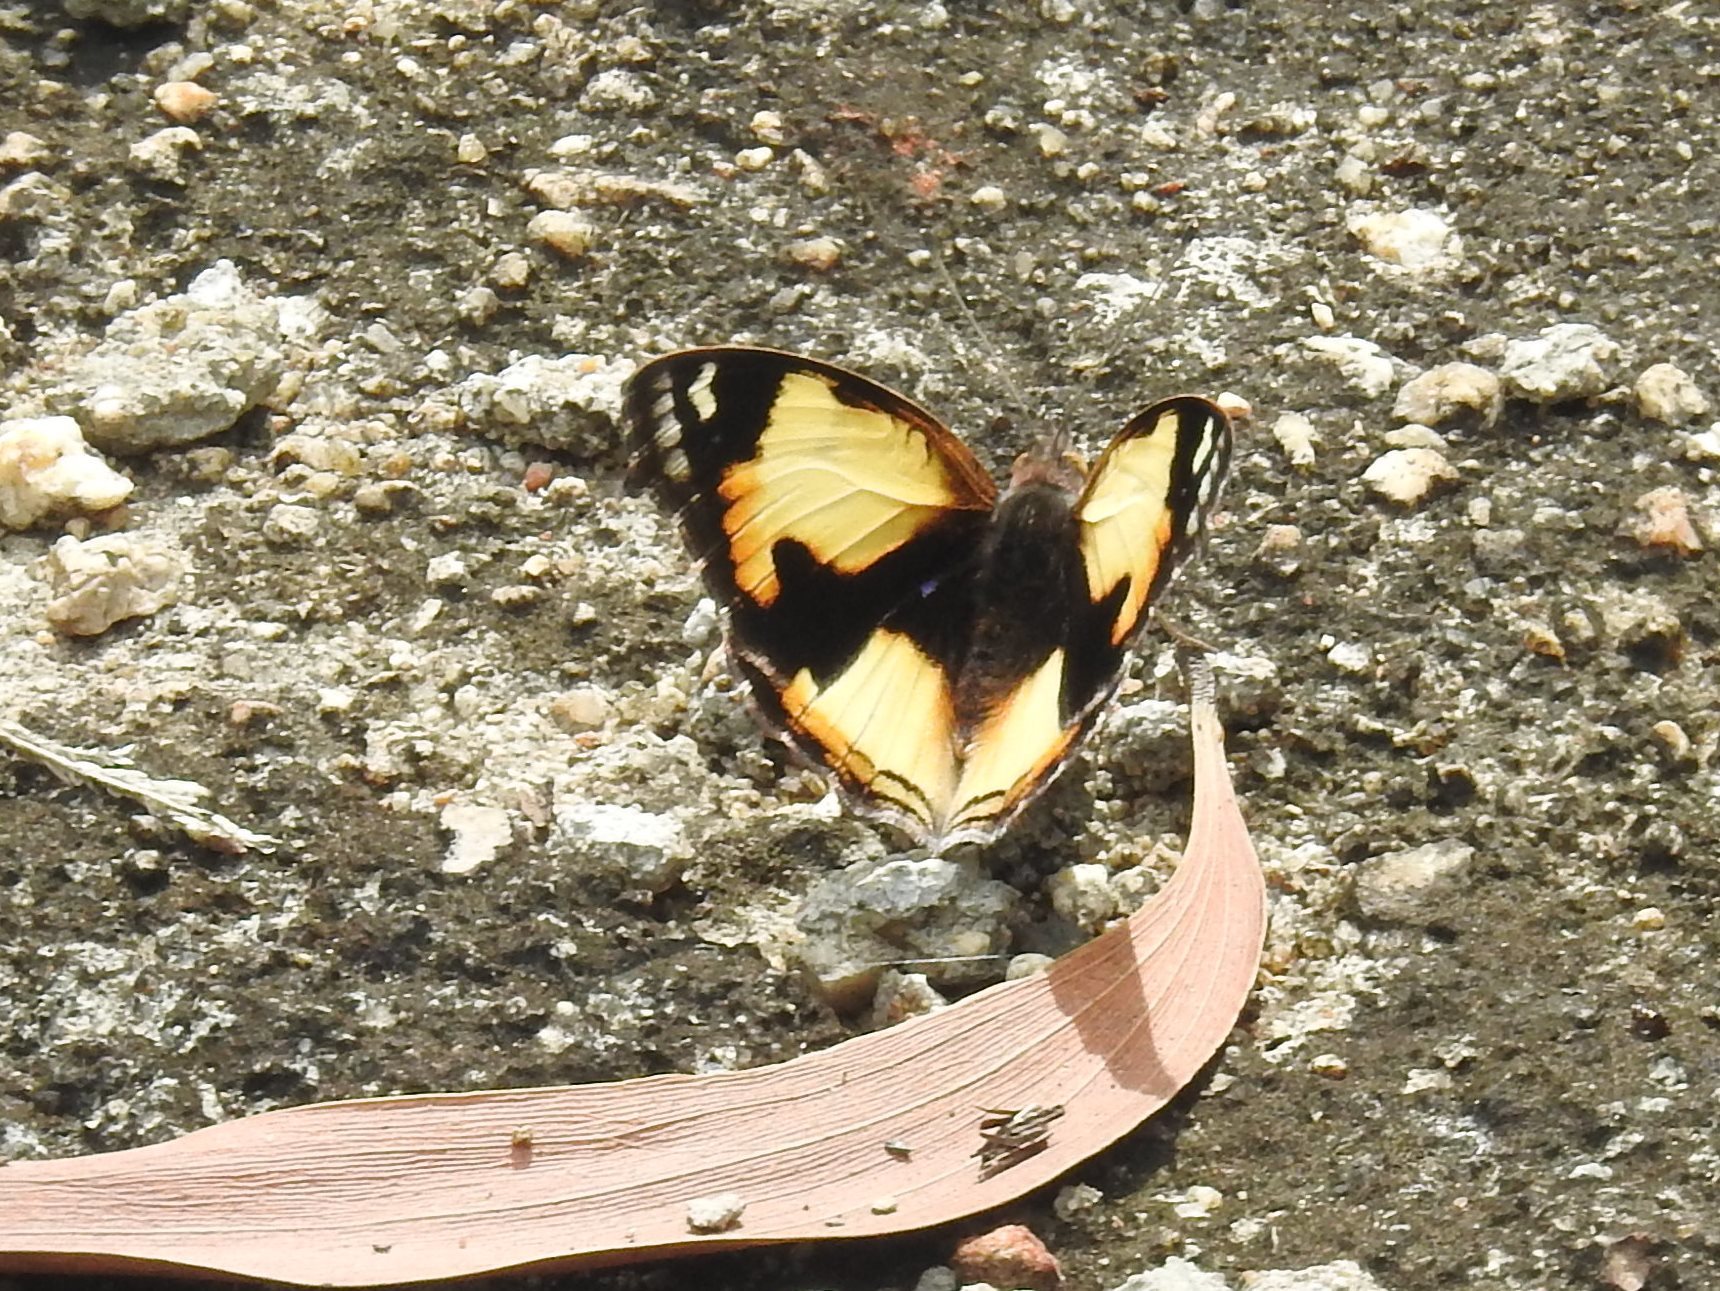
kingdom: Animalia
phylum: Arthropoda
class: Insecta
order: Lepidoptera
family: Nymphalidae
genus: Junonia
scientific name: Junonia hierta
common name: Yellow pansy
